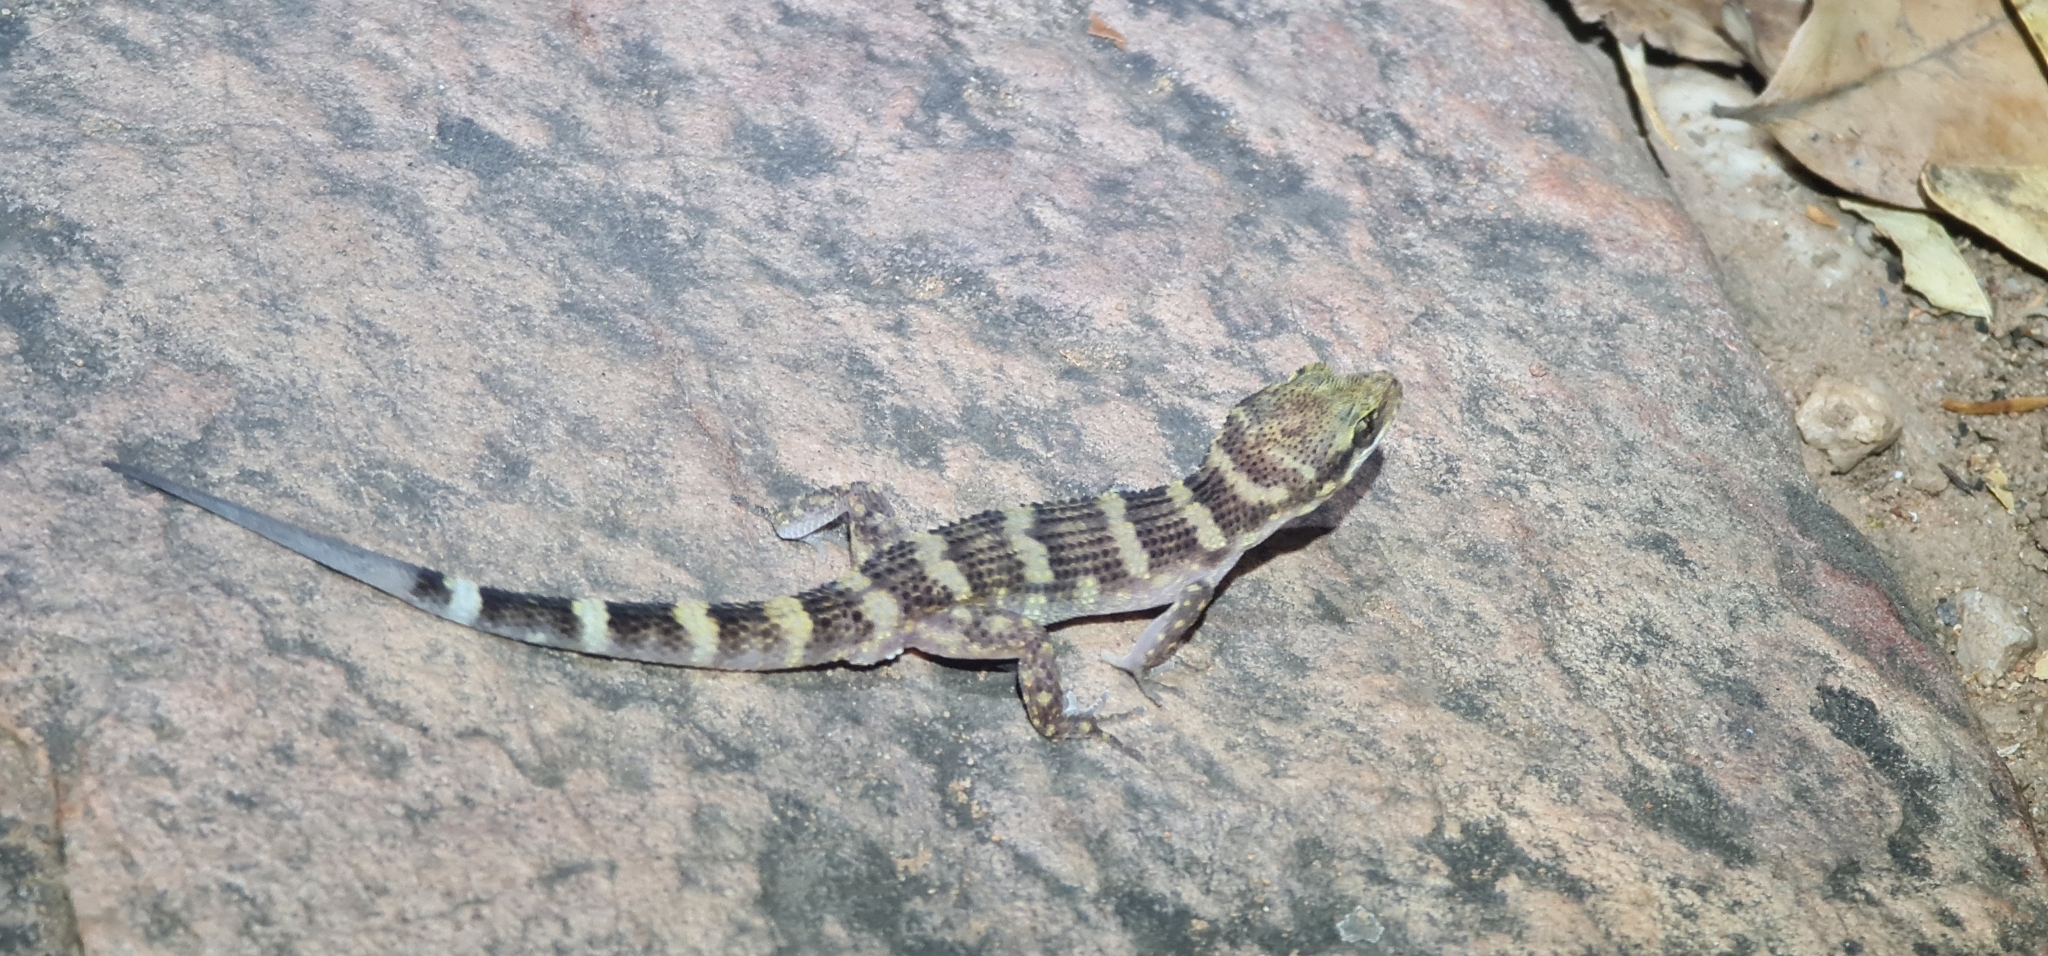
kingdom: Animalia
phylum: Chordata
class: Squamata
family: Gekkonidae
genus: Heteronotia
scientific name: Heteronotia binoei
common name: Bynoe's gecko
